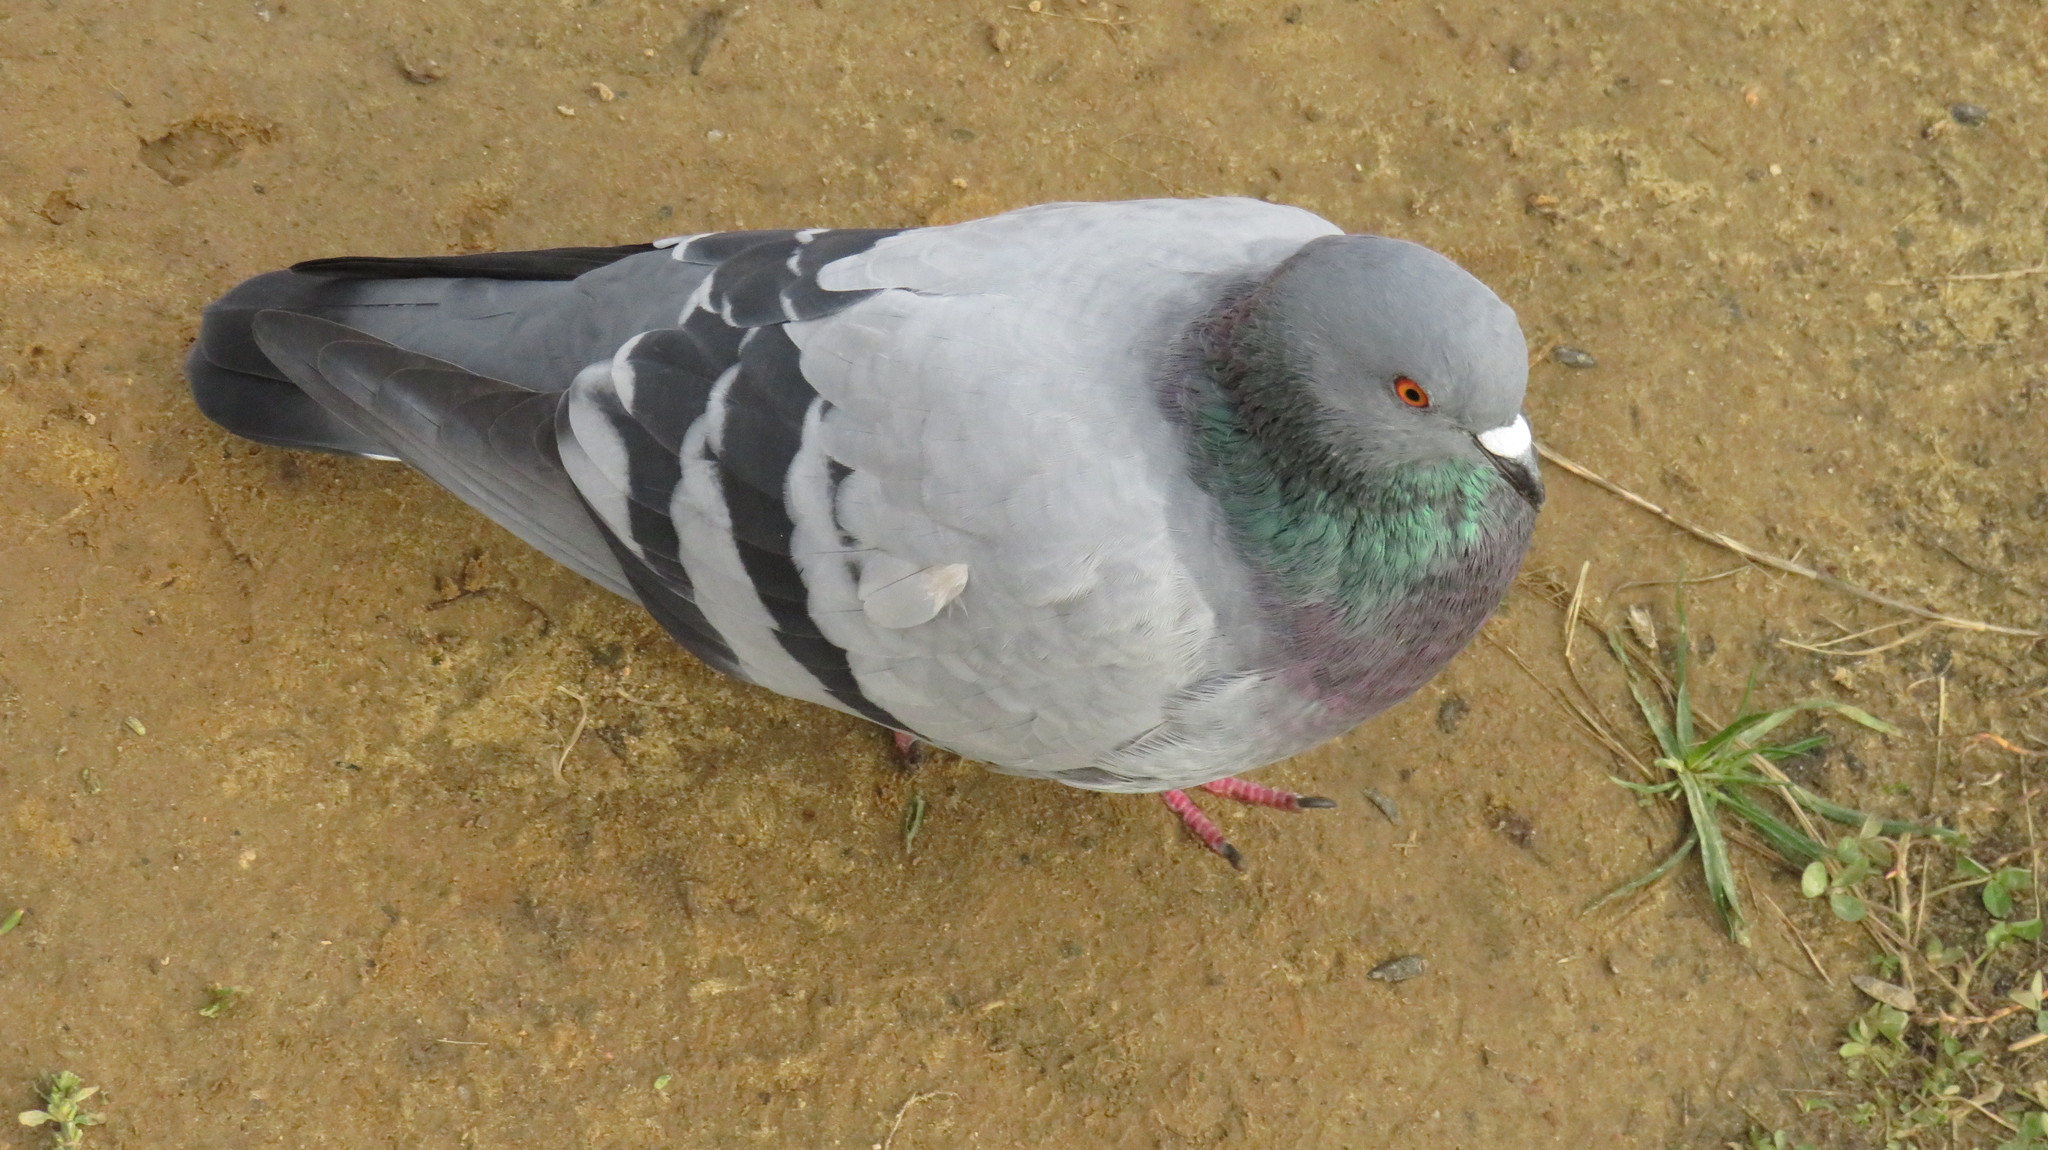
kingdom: Animalia
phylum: Chordata
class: Aves
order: Columbiformes
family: Columbidae
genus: Columba
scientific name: Columba livia
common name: Rock pigeon
